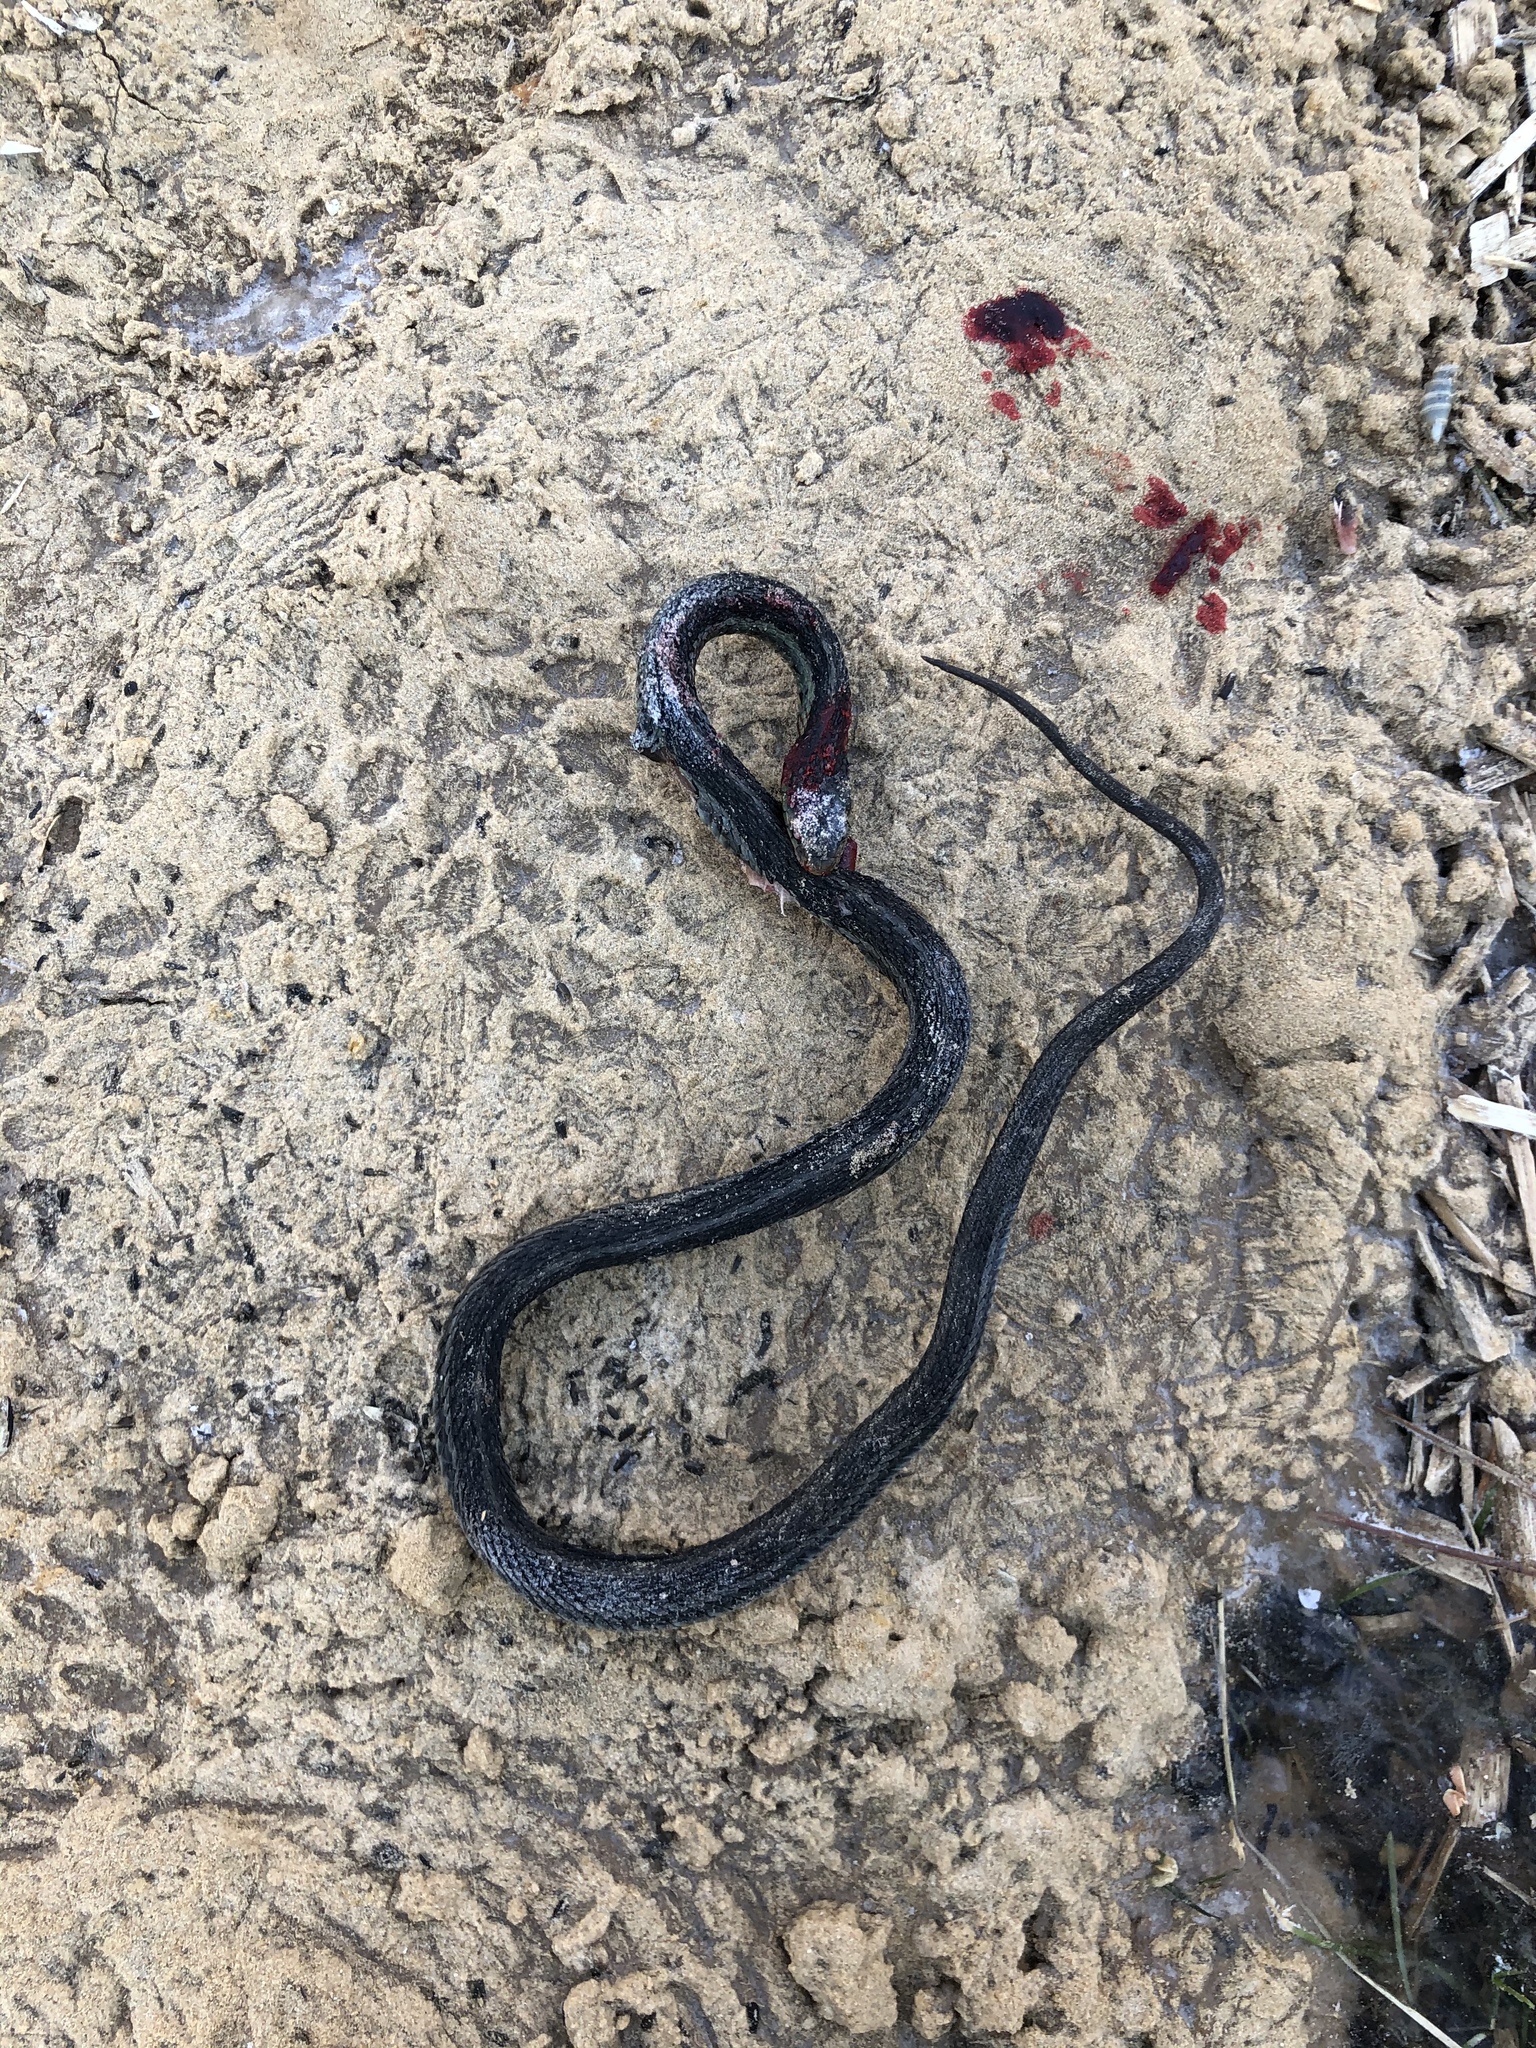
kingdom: Animalia
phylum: Chordata
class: Squamata
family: Colubridae
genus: Thamnophis
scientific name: Thamnophis sirtalis
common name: Common garter snake
